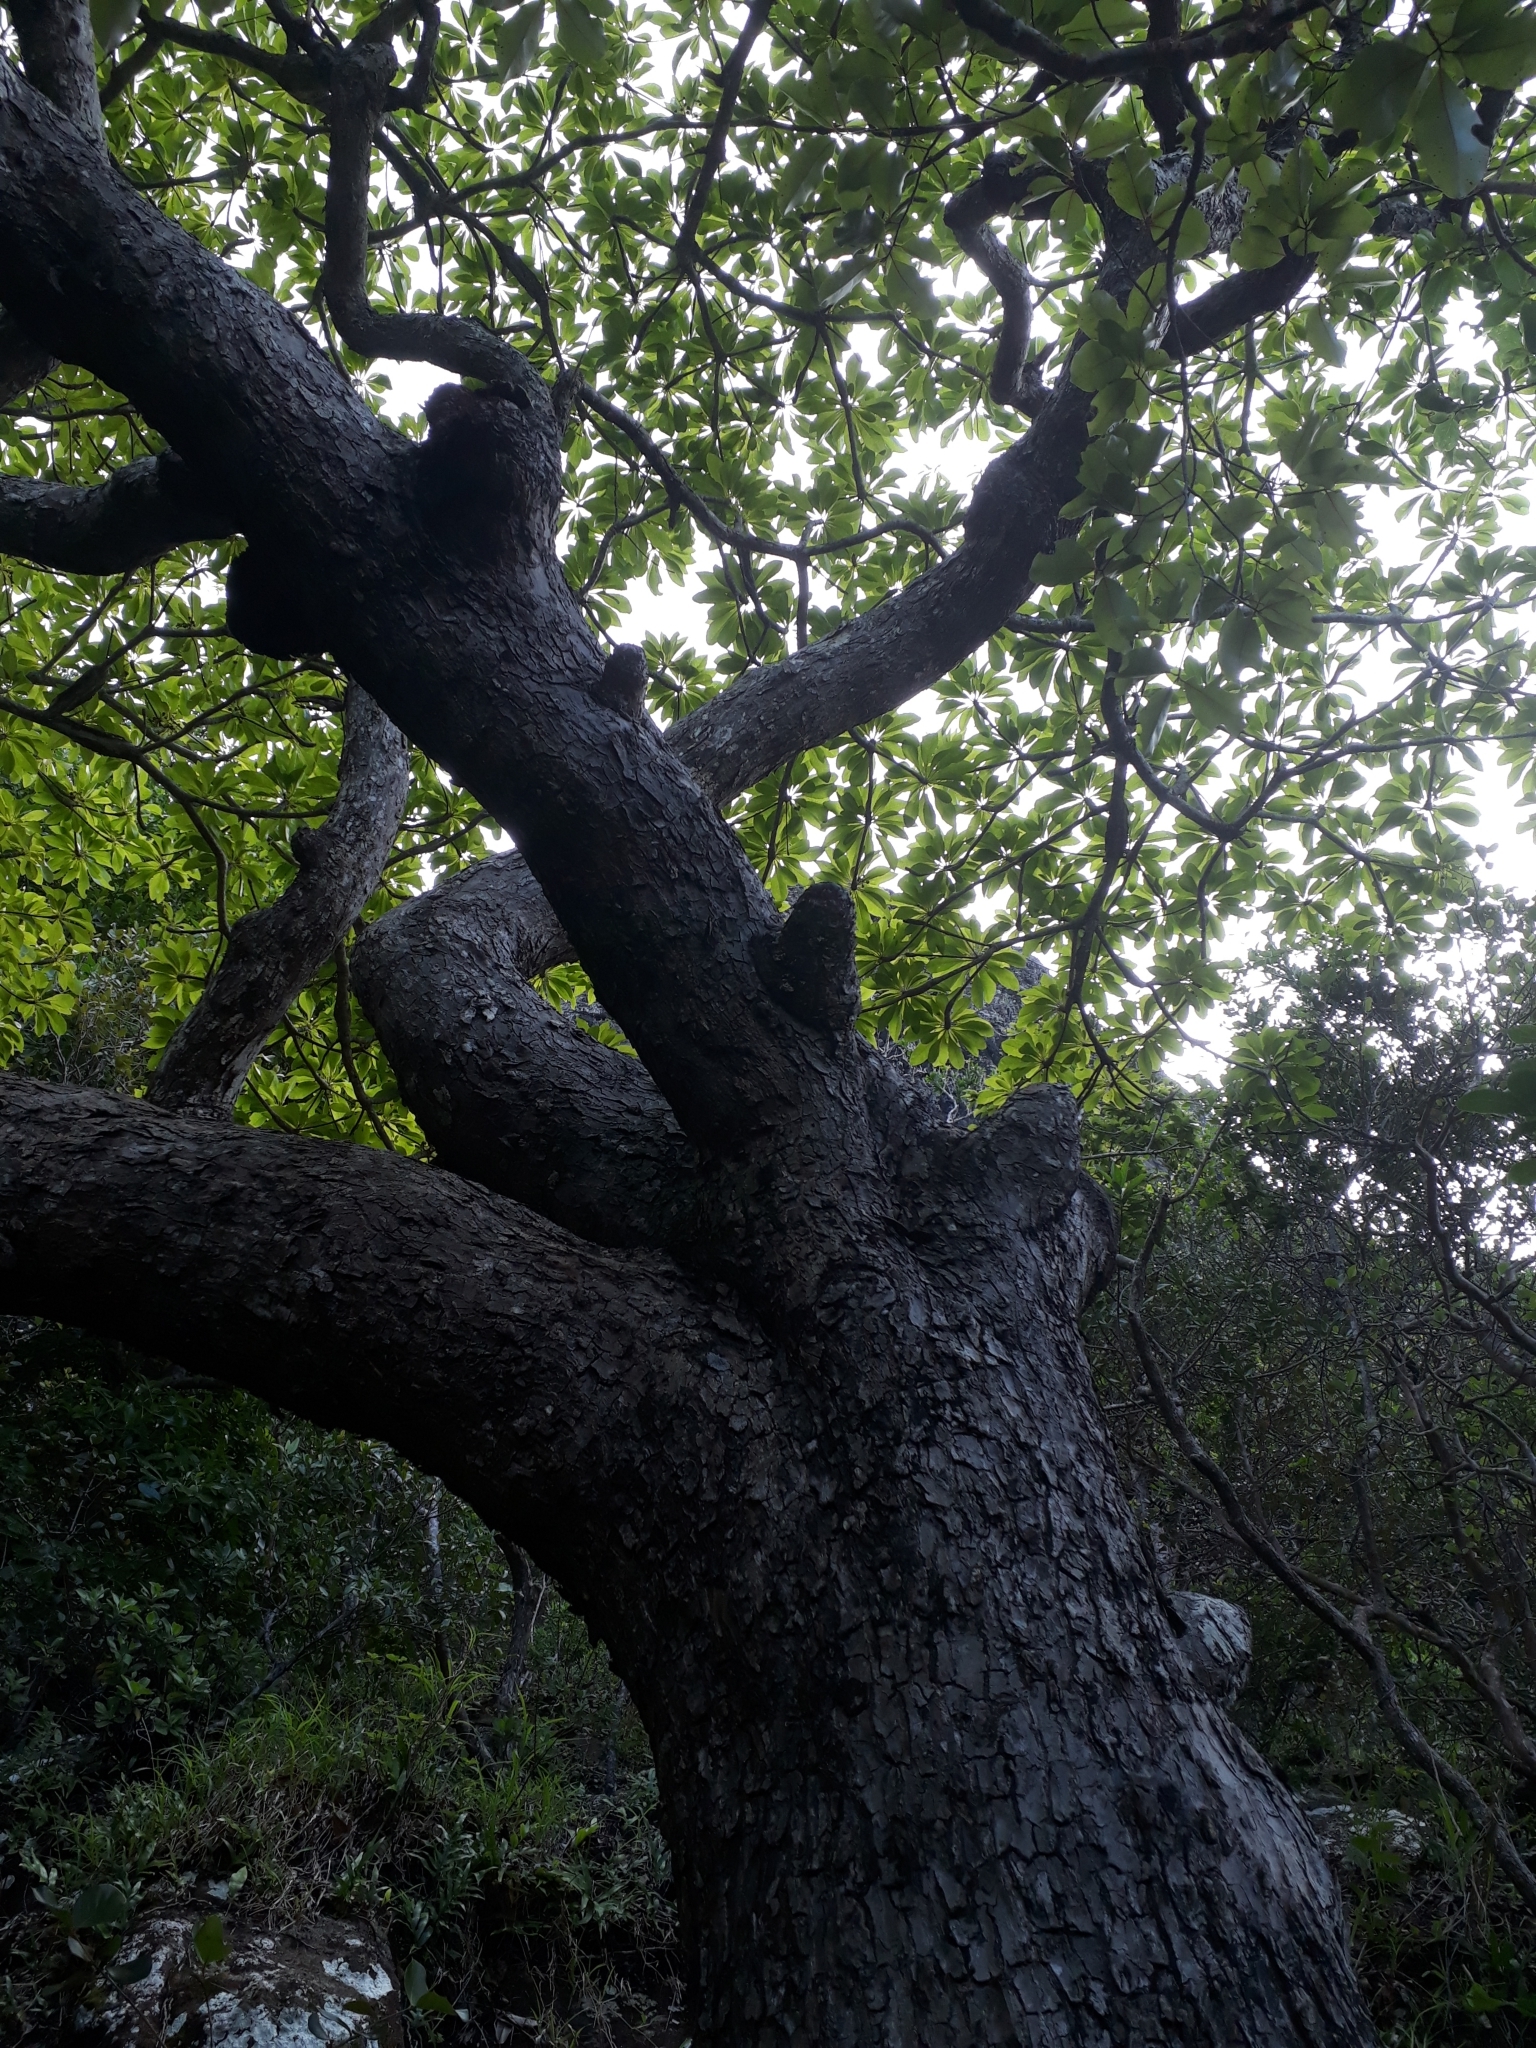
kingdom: Plantae
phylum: Tracheophyta
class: Magnoliopsida
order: Myrtales
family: Combretaceae
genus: Terminalia
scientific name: Terminalia bentzoe
